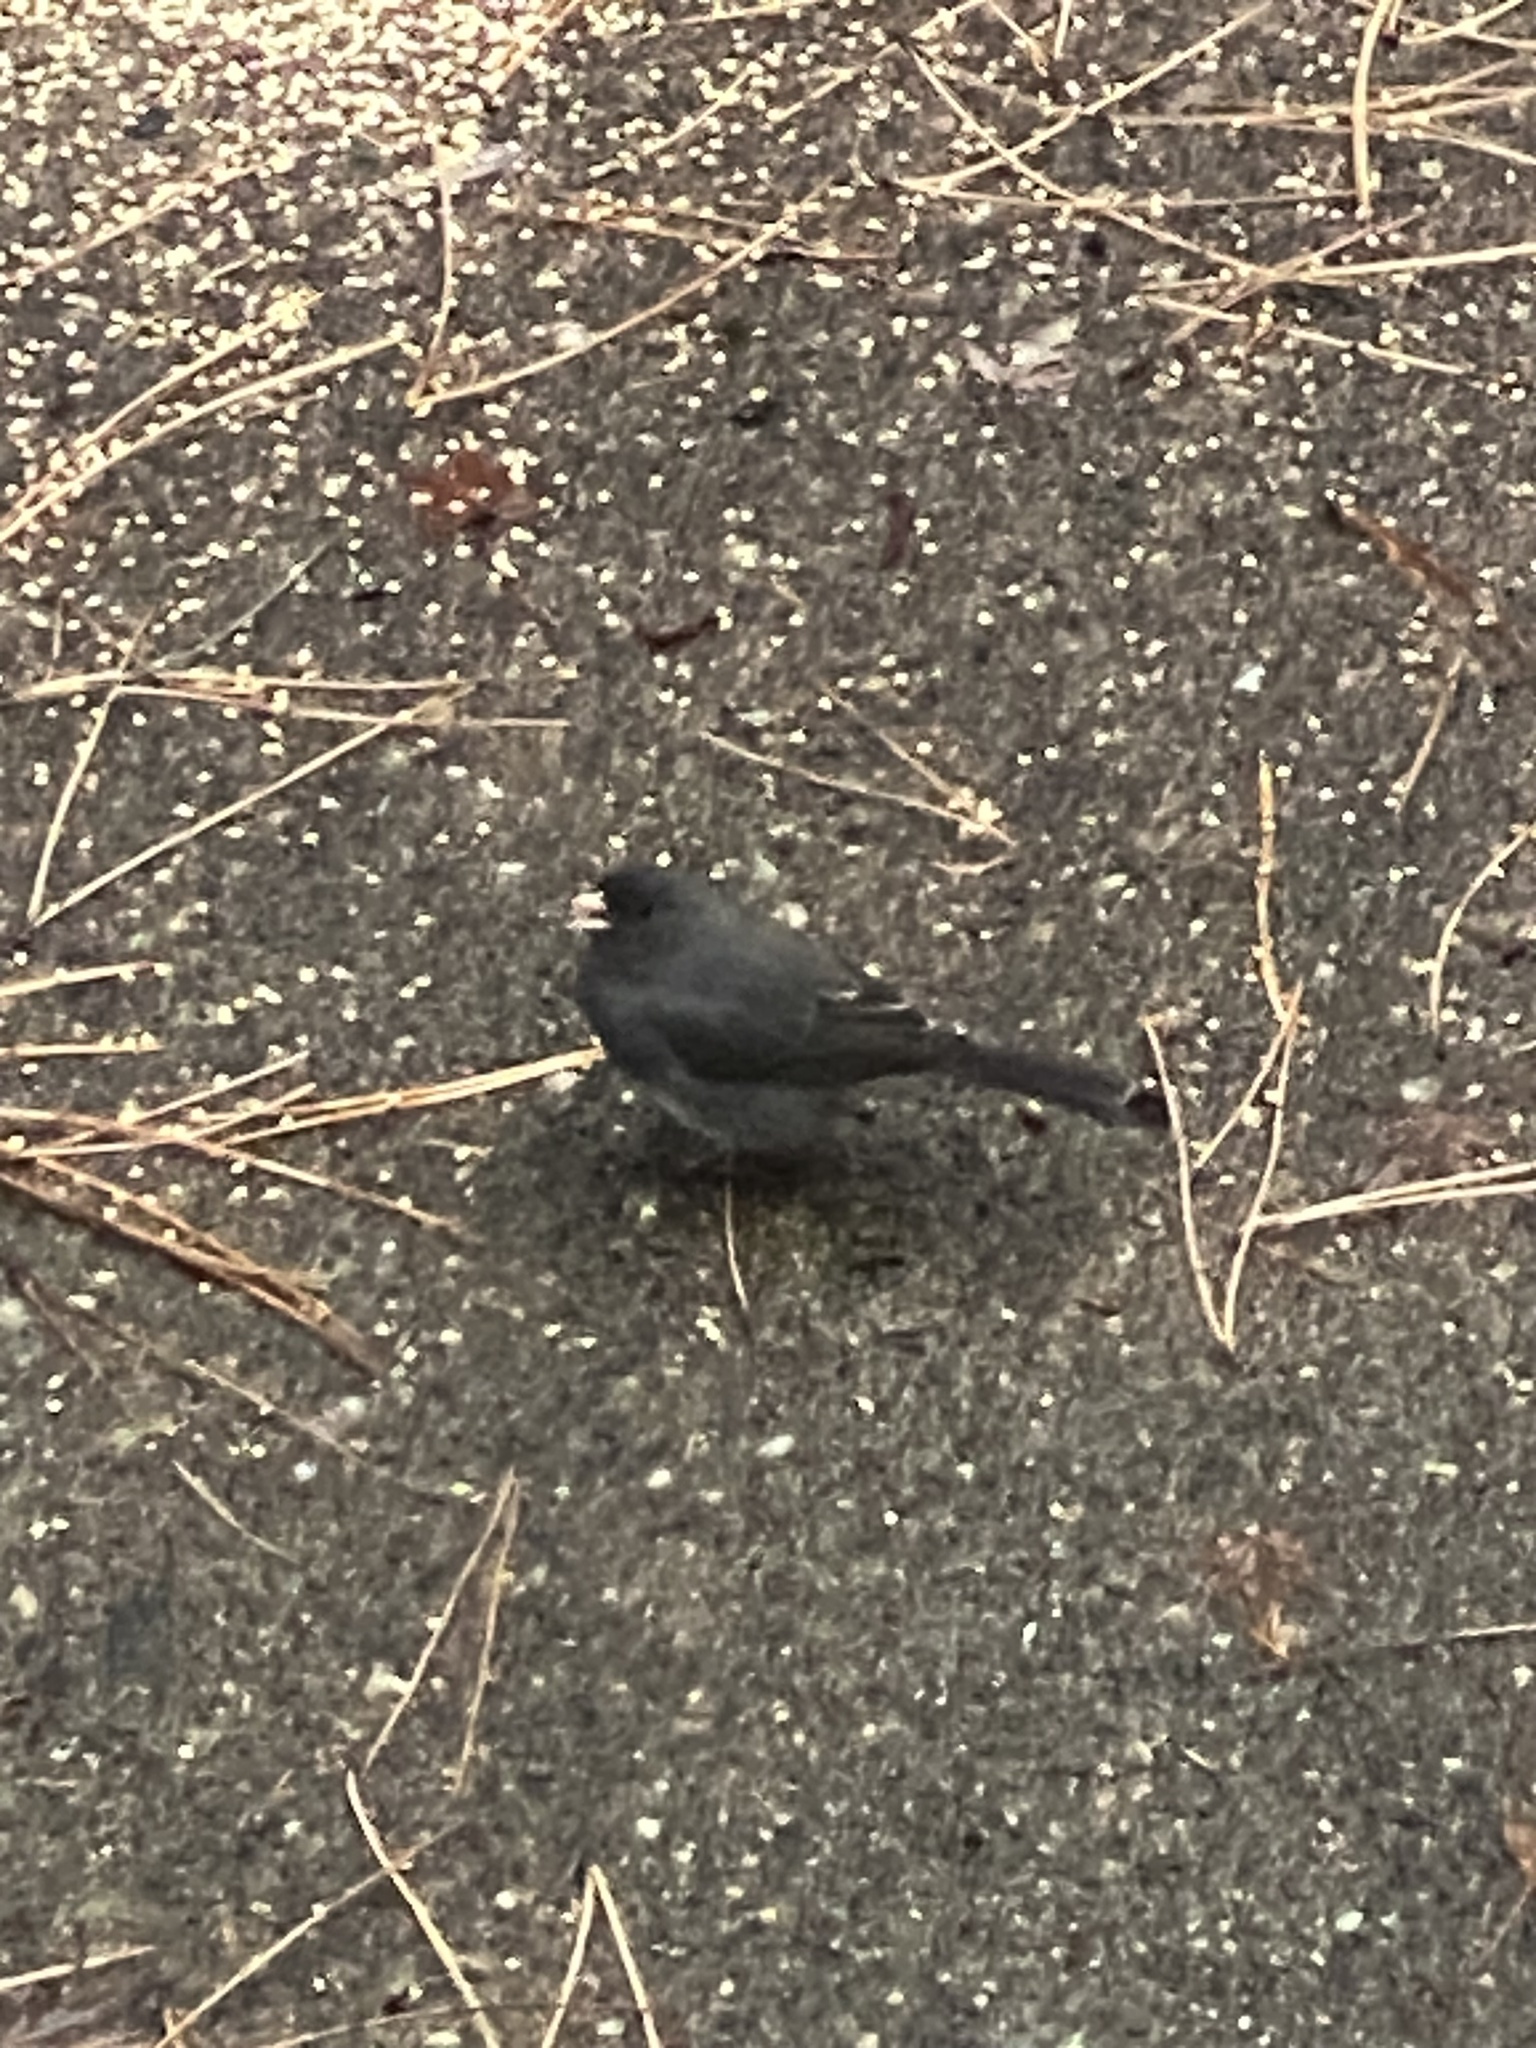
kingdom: Animalia
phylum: Chordata
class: Aves
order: Passeriformes
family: Passerellidae
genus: Junco
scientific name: Junco hyemalis
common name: Dark-eyed junco
